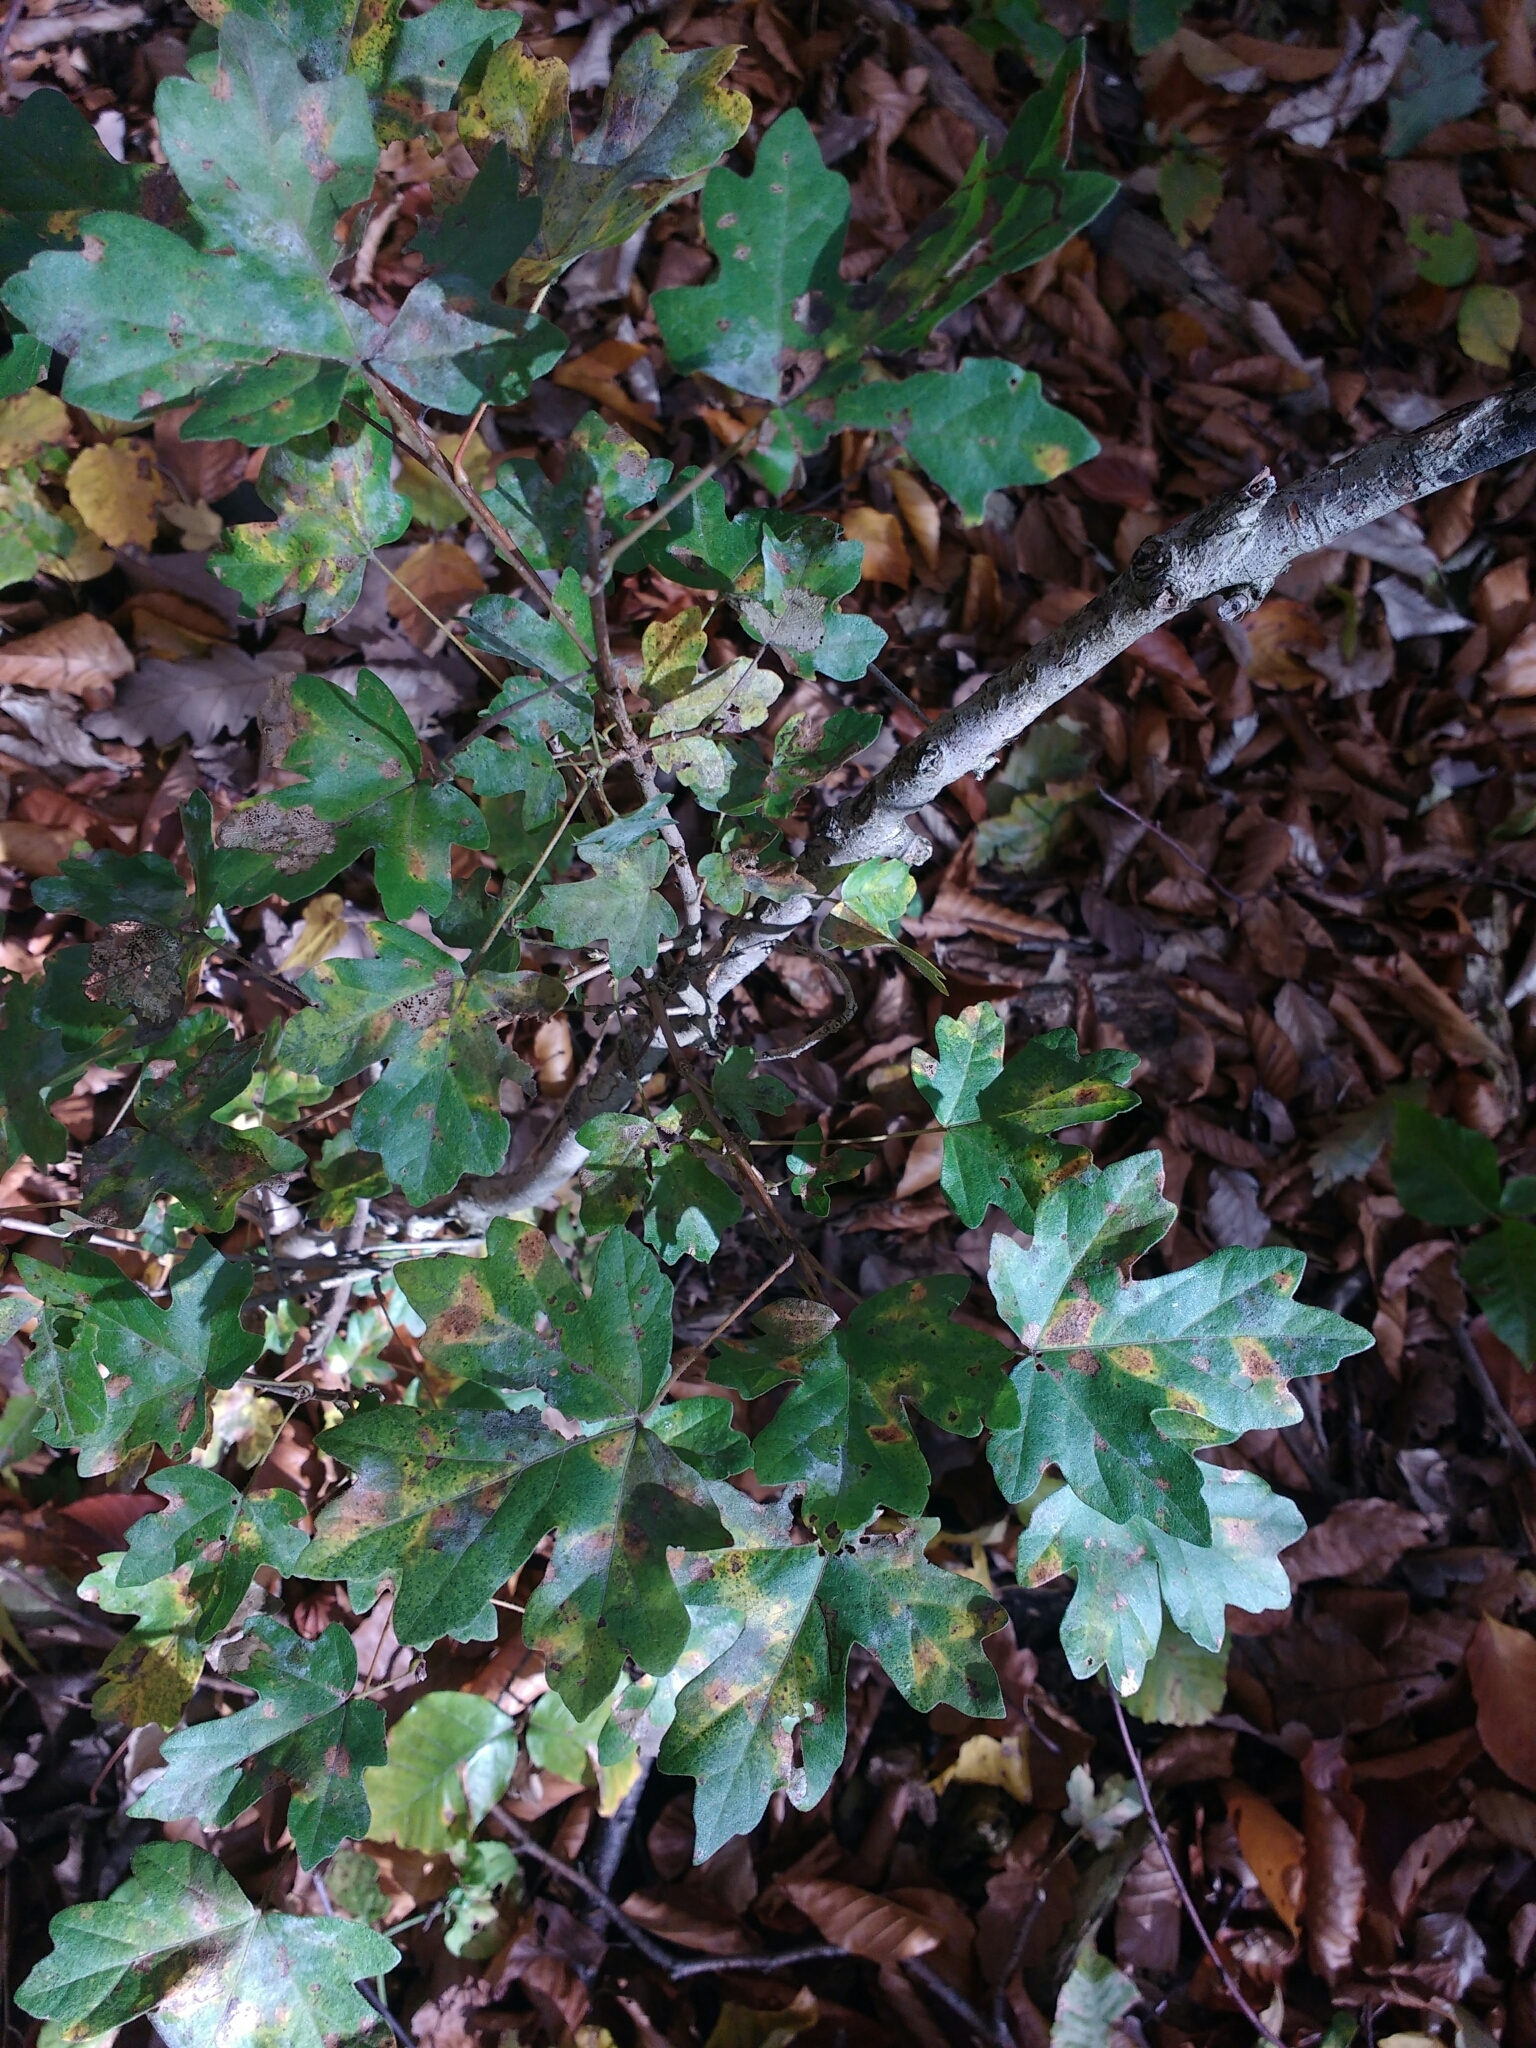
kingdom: Plantae
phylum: Tracheophyta
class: Magnoliopsida
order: Sapindales
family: Sapindaceae
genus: Acer
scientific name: Acer campestre
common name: Field maple
